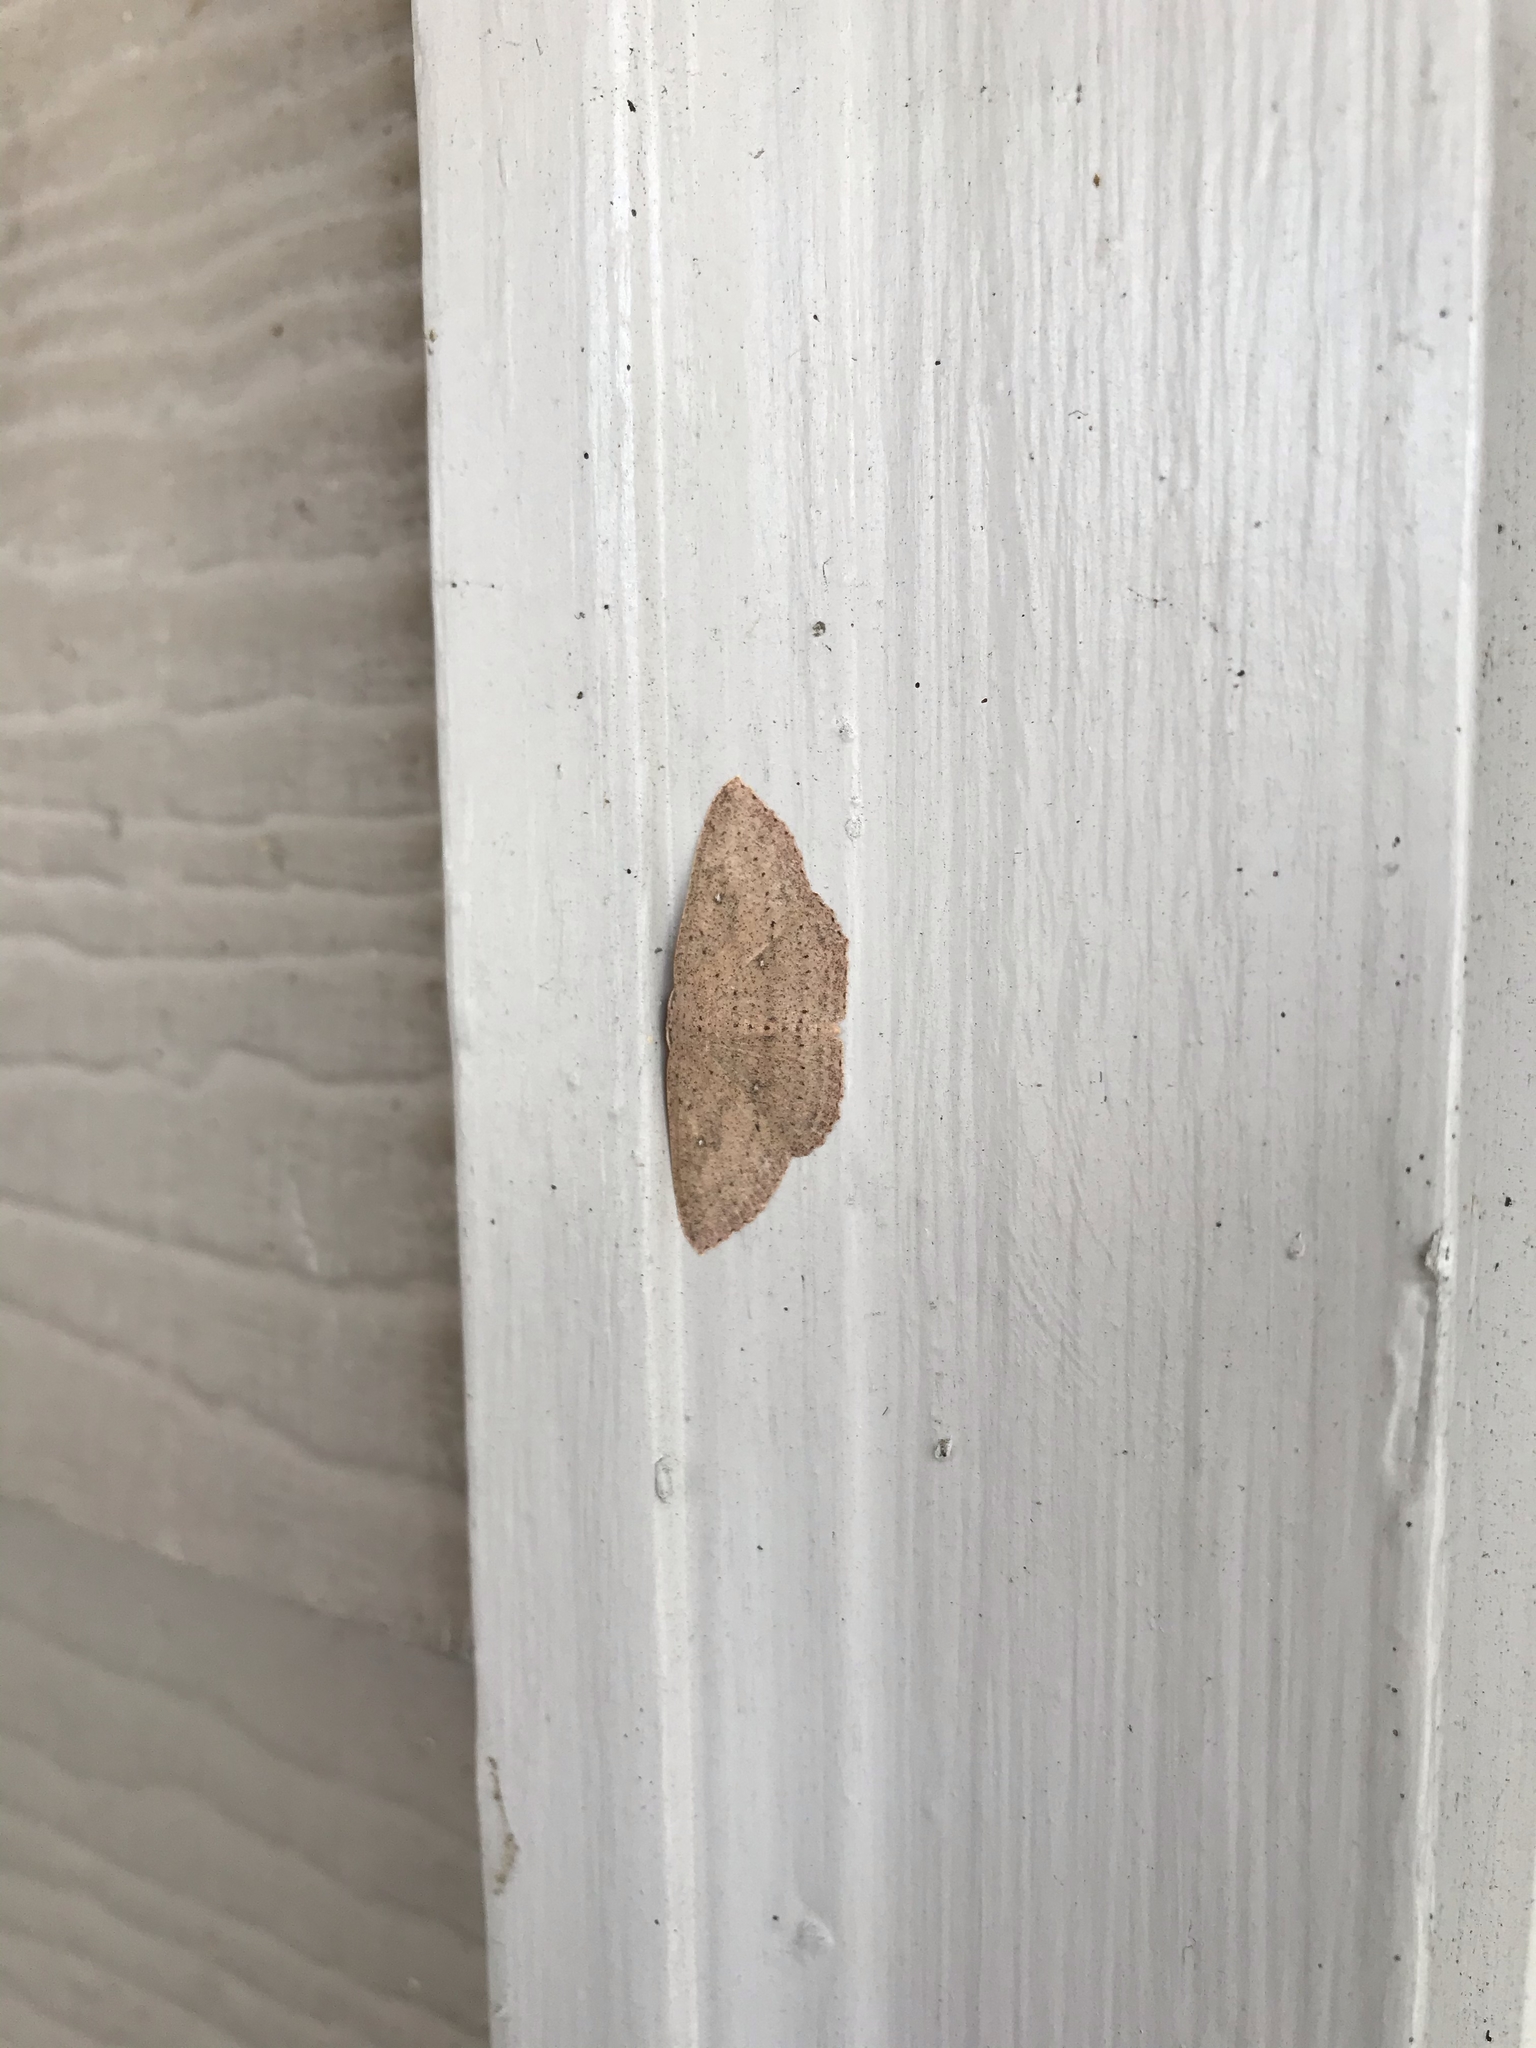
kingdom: Animalia
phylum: Arthropoda
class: Insecta
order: Lepidoptera
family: Geometridae
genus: Cyclophora
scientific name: Cyclophora myrtaria
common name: Waxmyrtle wave moth
